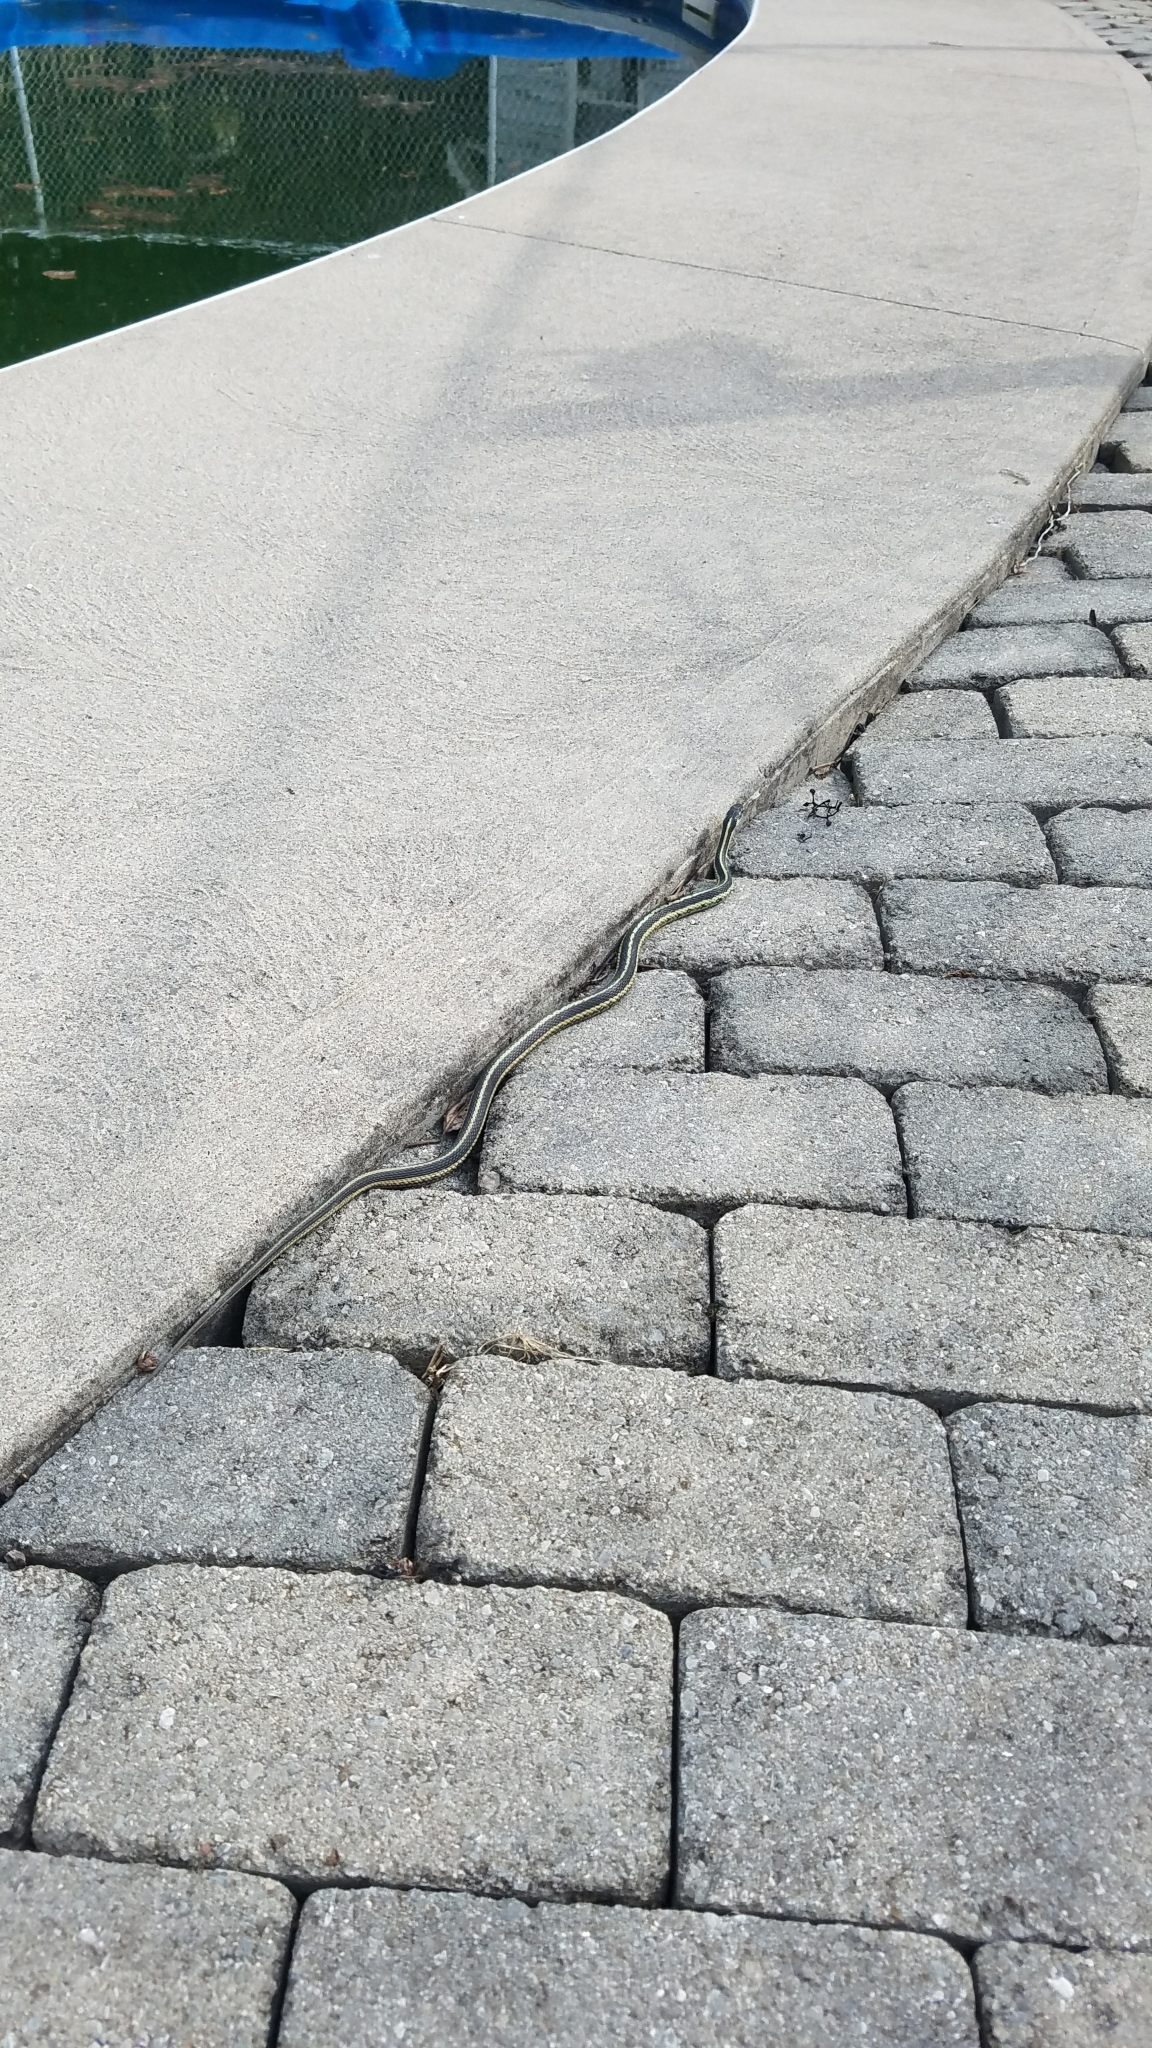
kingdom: Animalia
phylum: Chordata
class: Squamata
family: Colubridae
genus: Thamnophis
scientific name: Thamnophis sirtalis
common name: Common garter snake
